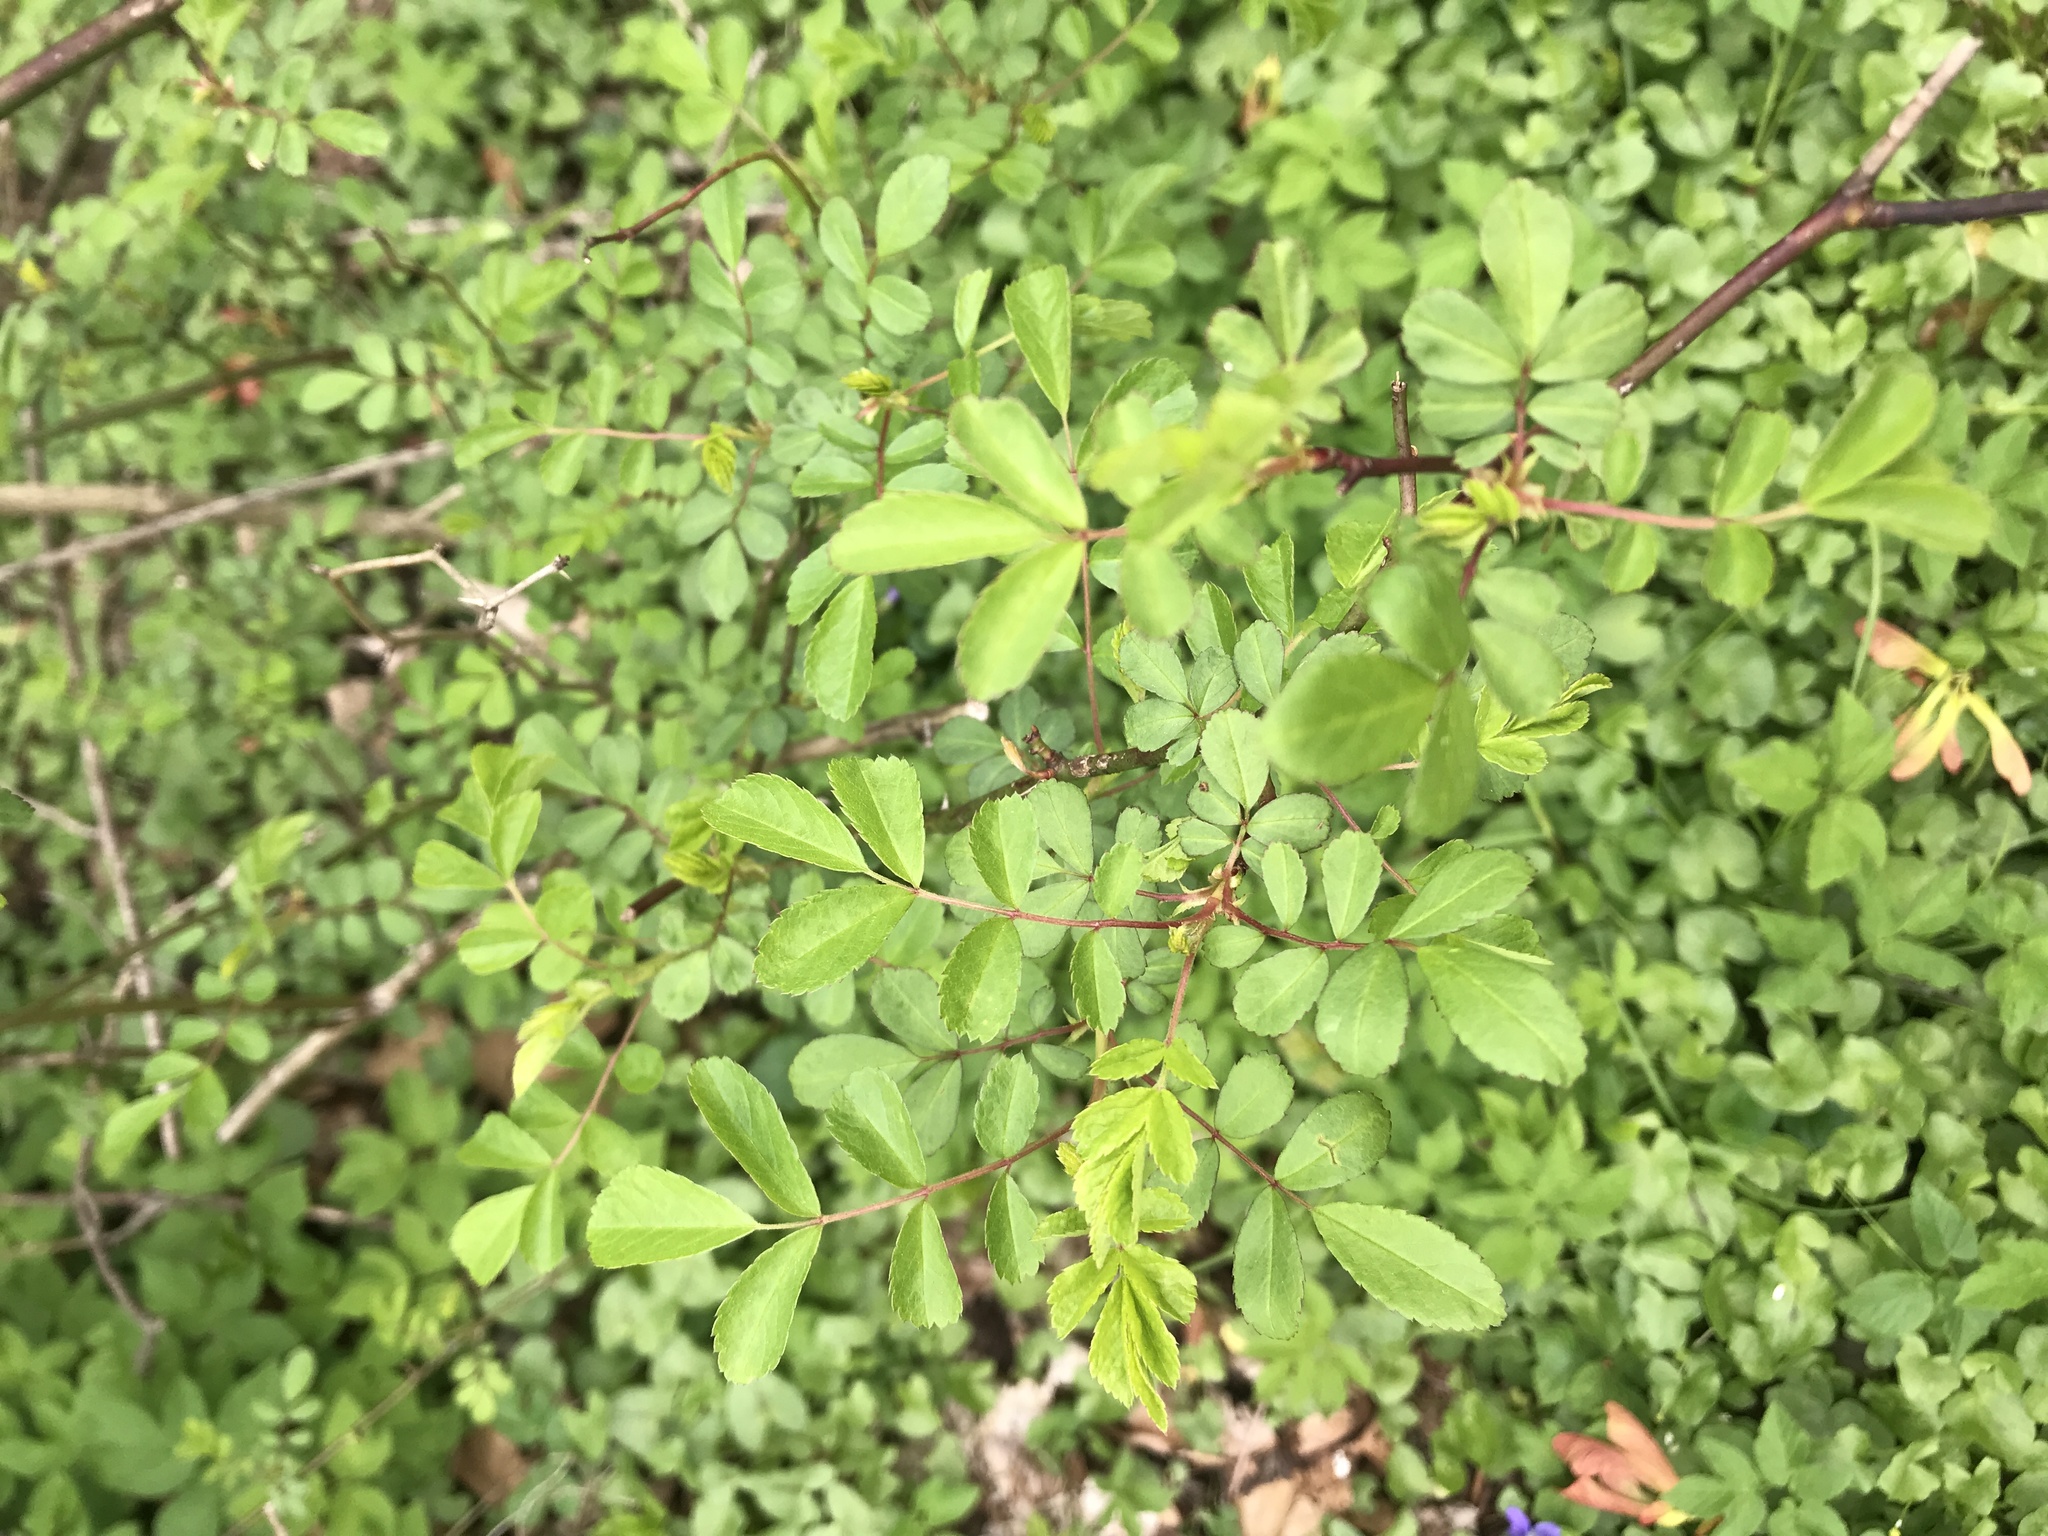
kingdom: Plantae
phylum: Tracheophyta
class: Magnoliopsida
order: Rosales
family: Rosaceae
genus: Rosa
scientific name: Rosa multiflora
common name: Multiflora rose
